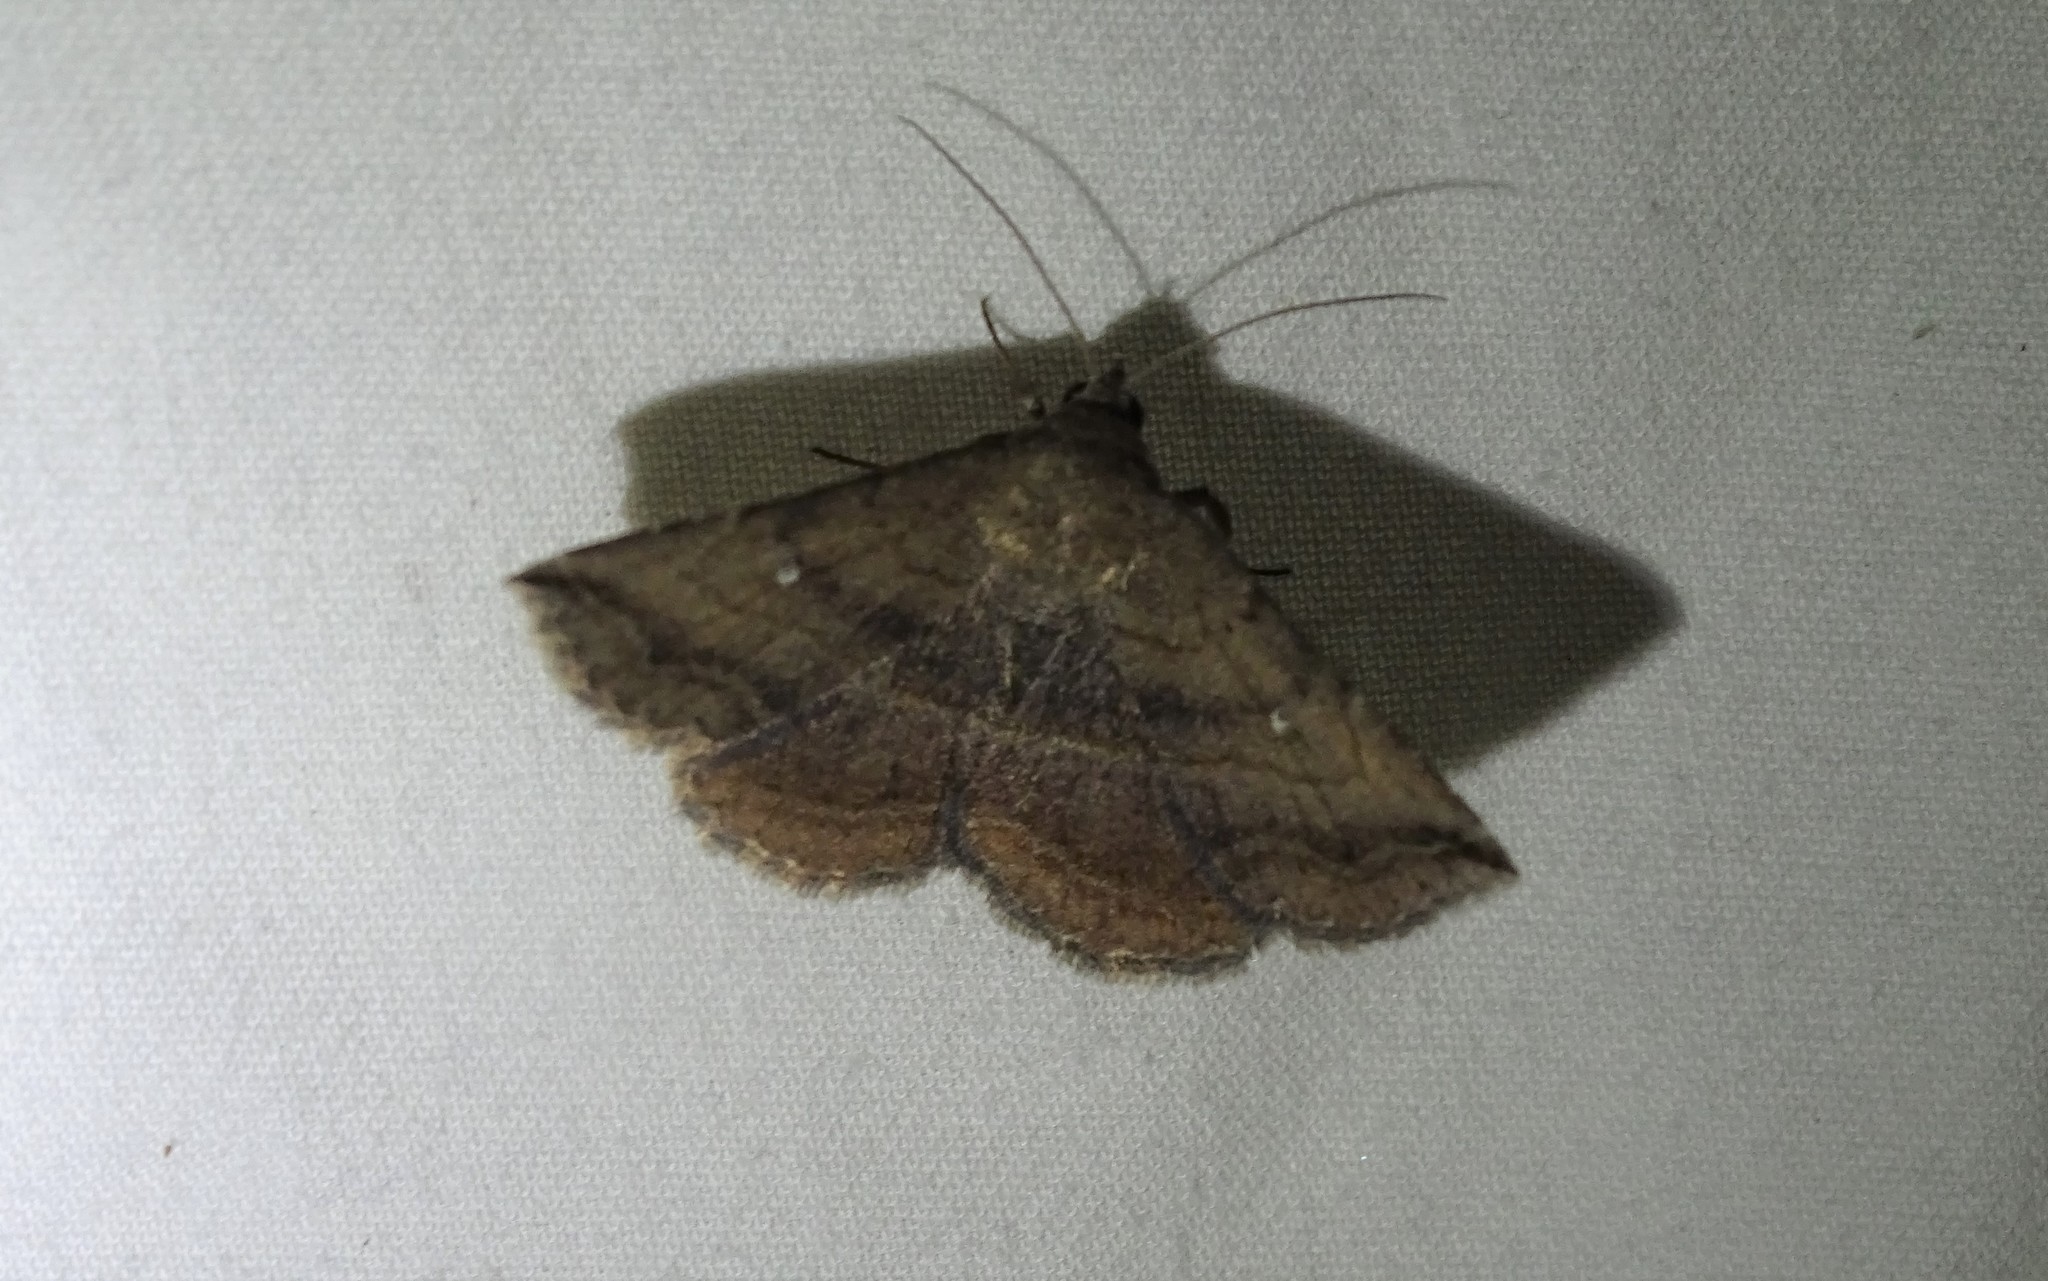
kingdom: Animalia
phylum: Arthropoda
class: Insecta
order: Lepidoptera
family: Erebidae
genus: Lesmone
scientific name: Lesmone detrahens
